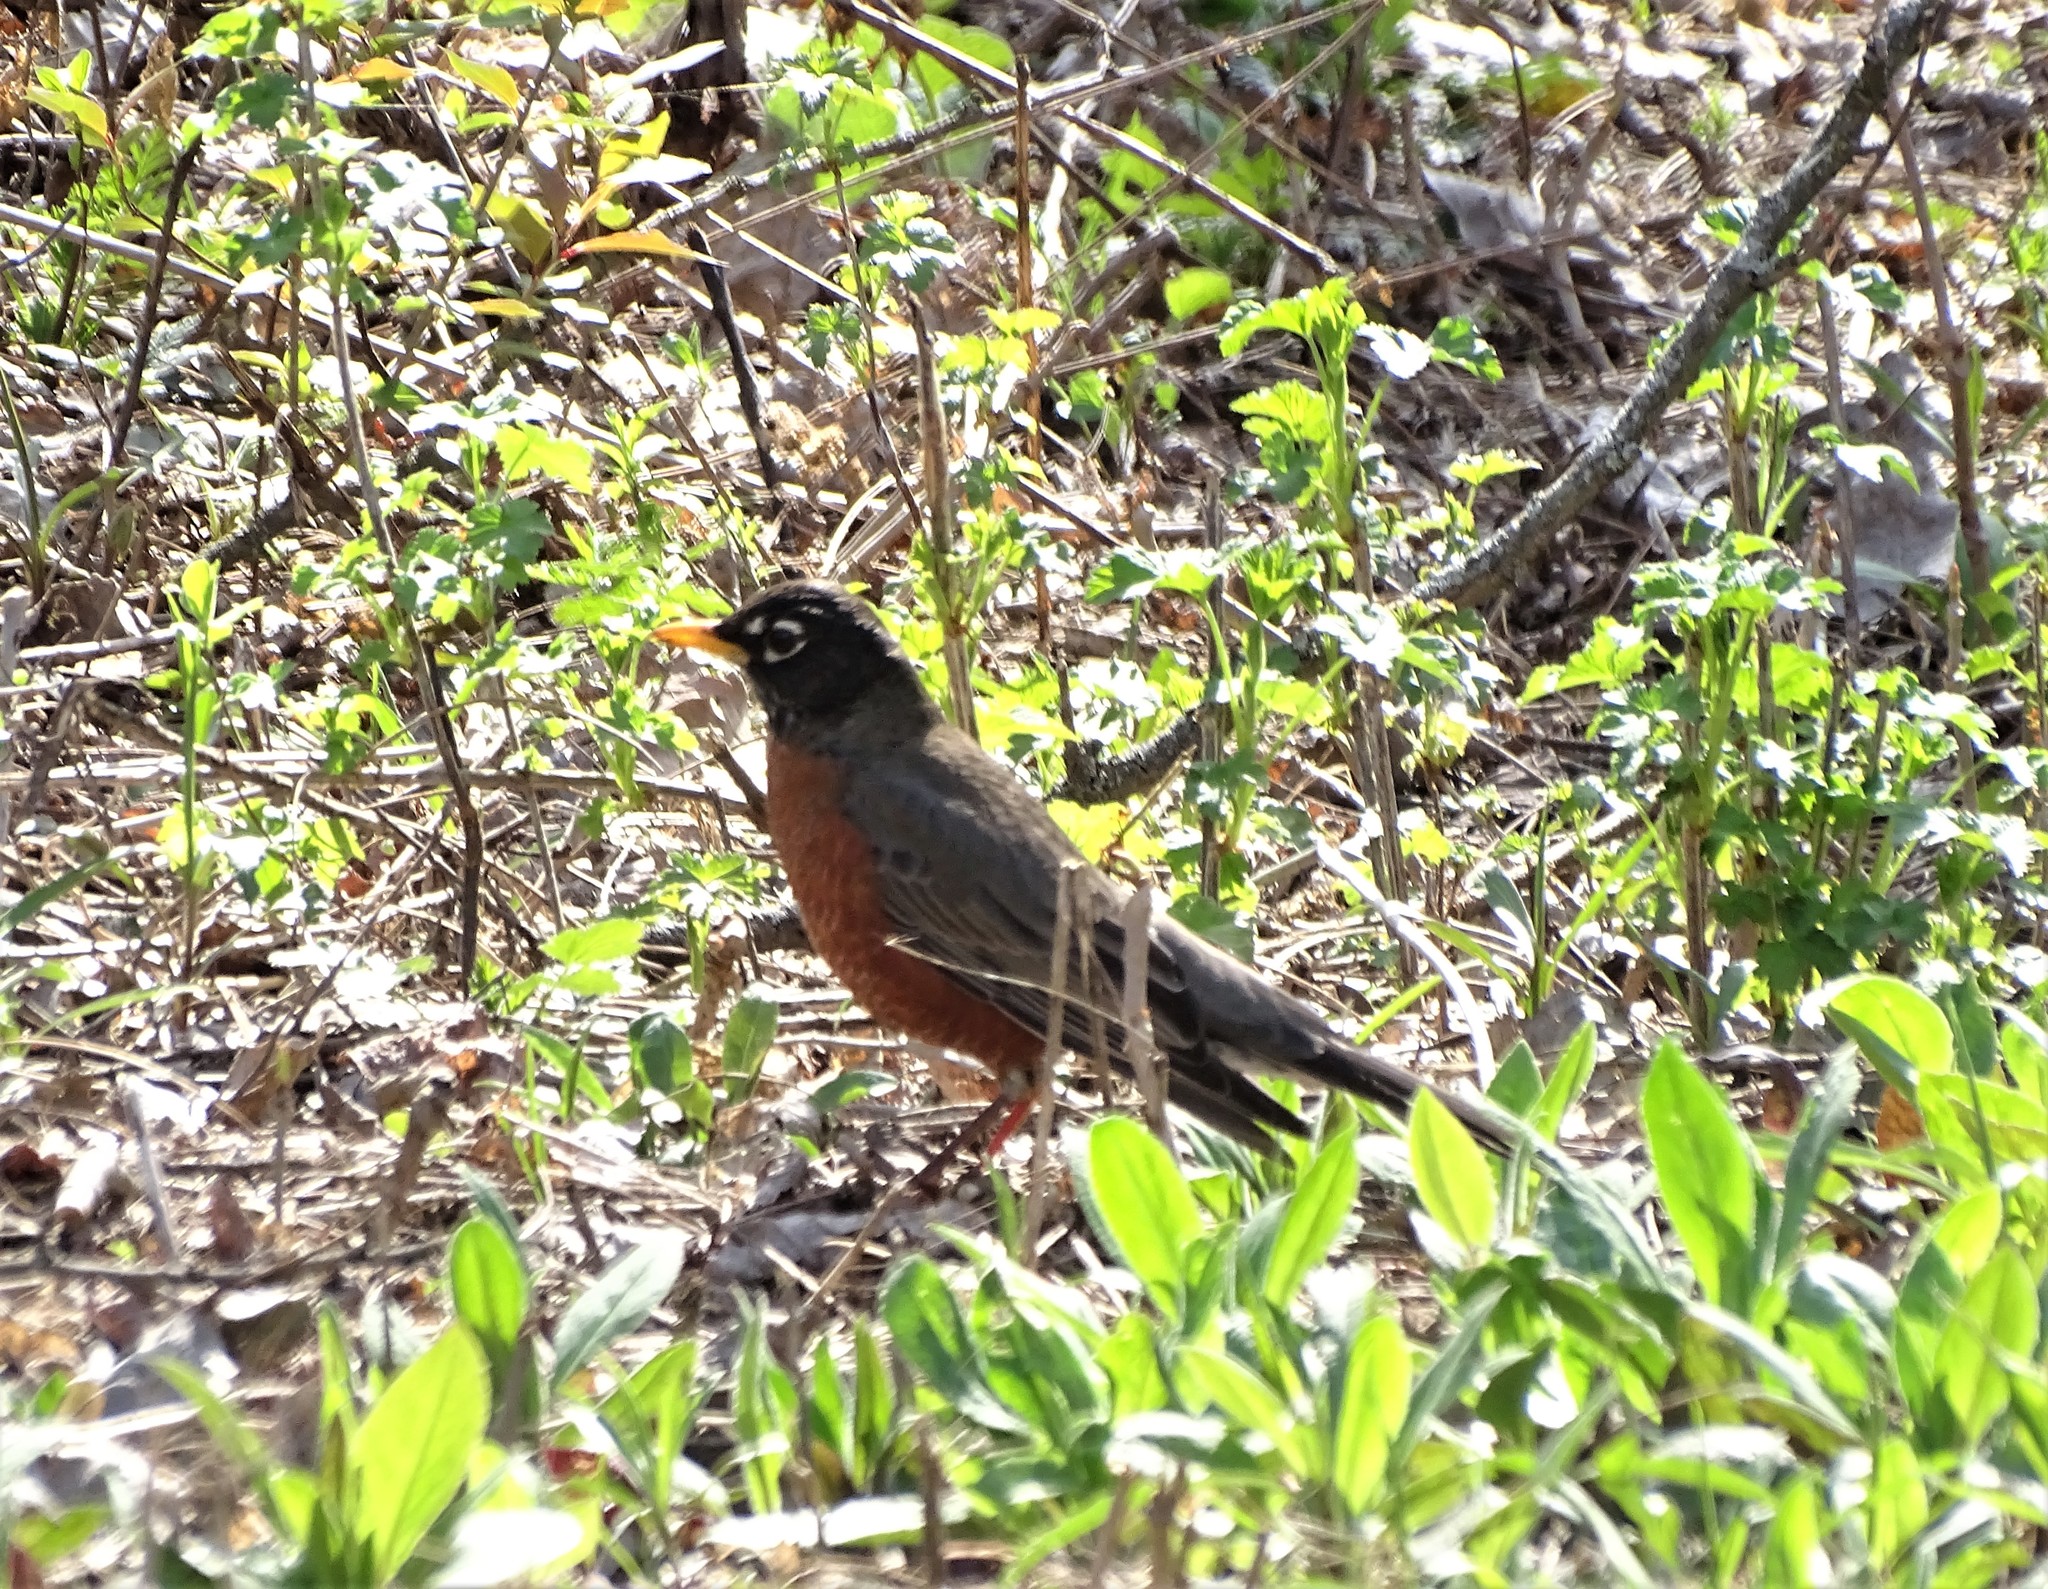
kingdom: Animalia
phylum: Chordata
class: Aves
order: Passeriformes
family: Turdidae
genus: Turdus
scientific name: Turdus migratorius
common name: American robin
